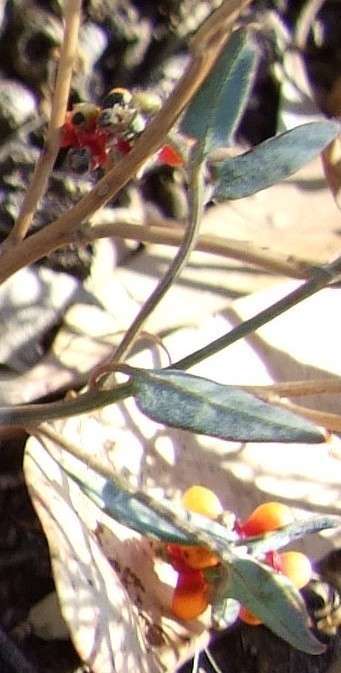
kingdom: Plantae
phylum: Tracheophyta
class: Magnoliopsida
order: Caryophyllales
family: Amaranthaceae
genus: Chenopodium
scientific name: Chenopodium nutans
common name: Climbing-saltbush
